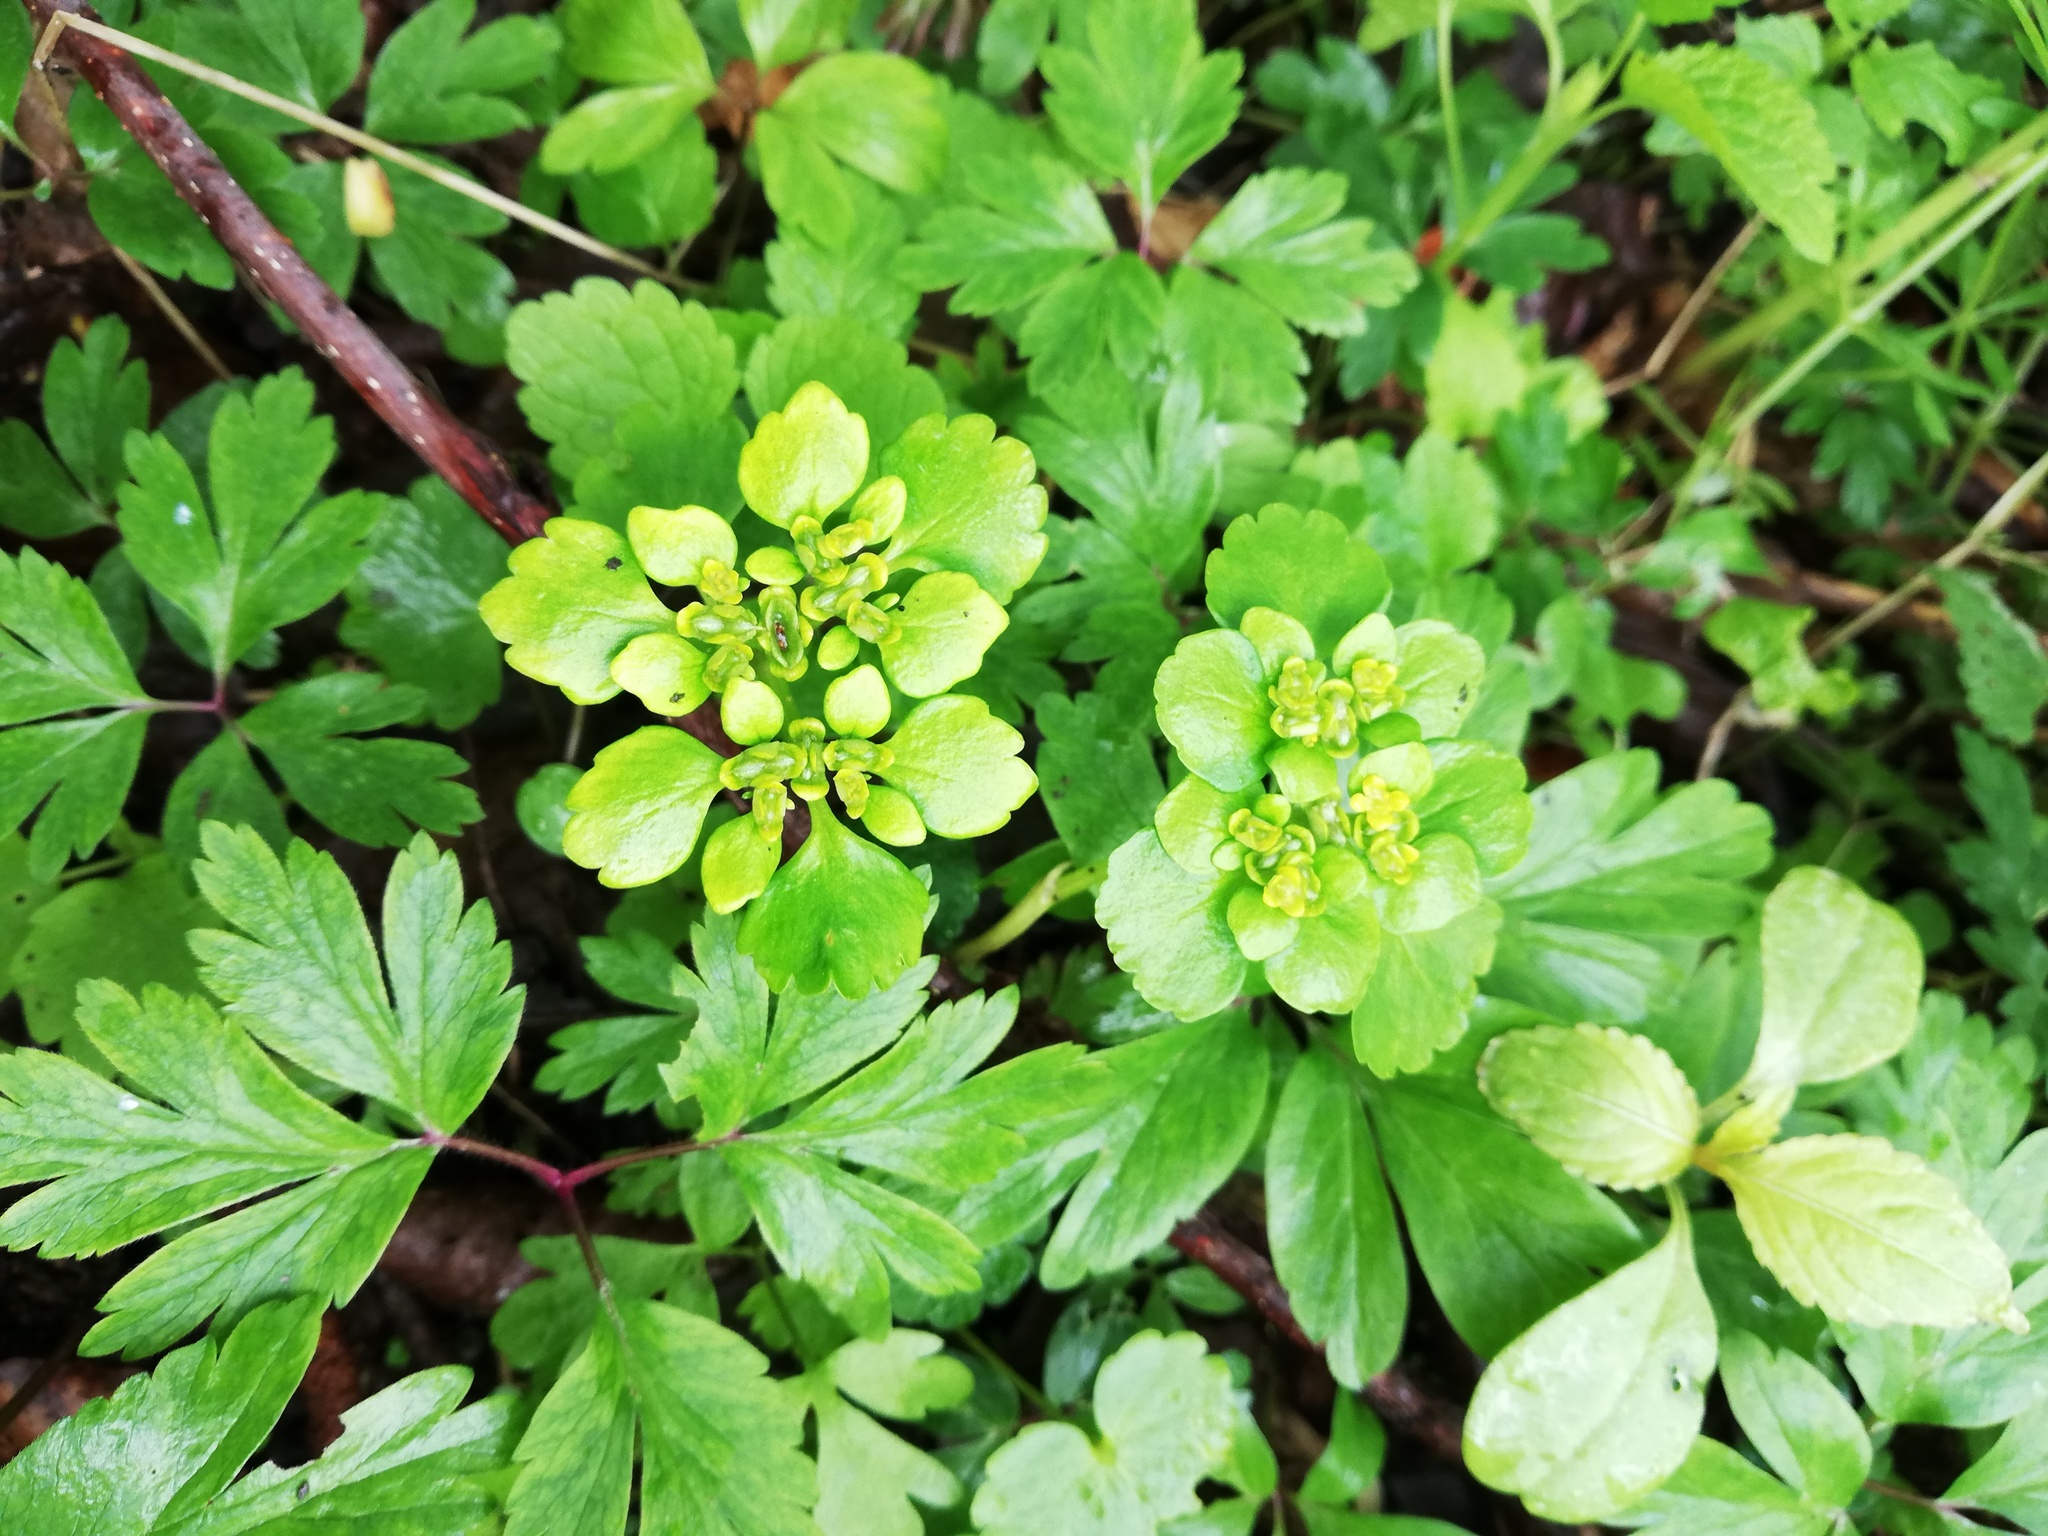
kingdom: Plantae
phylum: Tracheophyta
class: Magnoliopsida
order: Saxifragales
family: Saxifragaceae
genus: Chrysosplenium
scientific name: Chrysosplenium alternifolium
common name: Alternate-leaved golden-saxifrage
